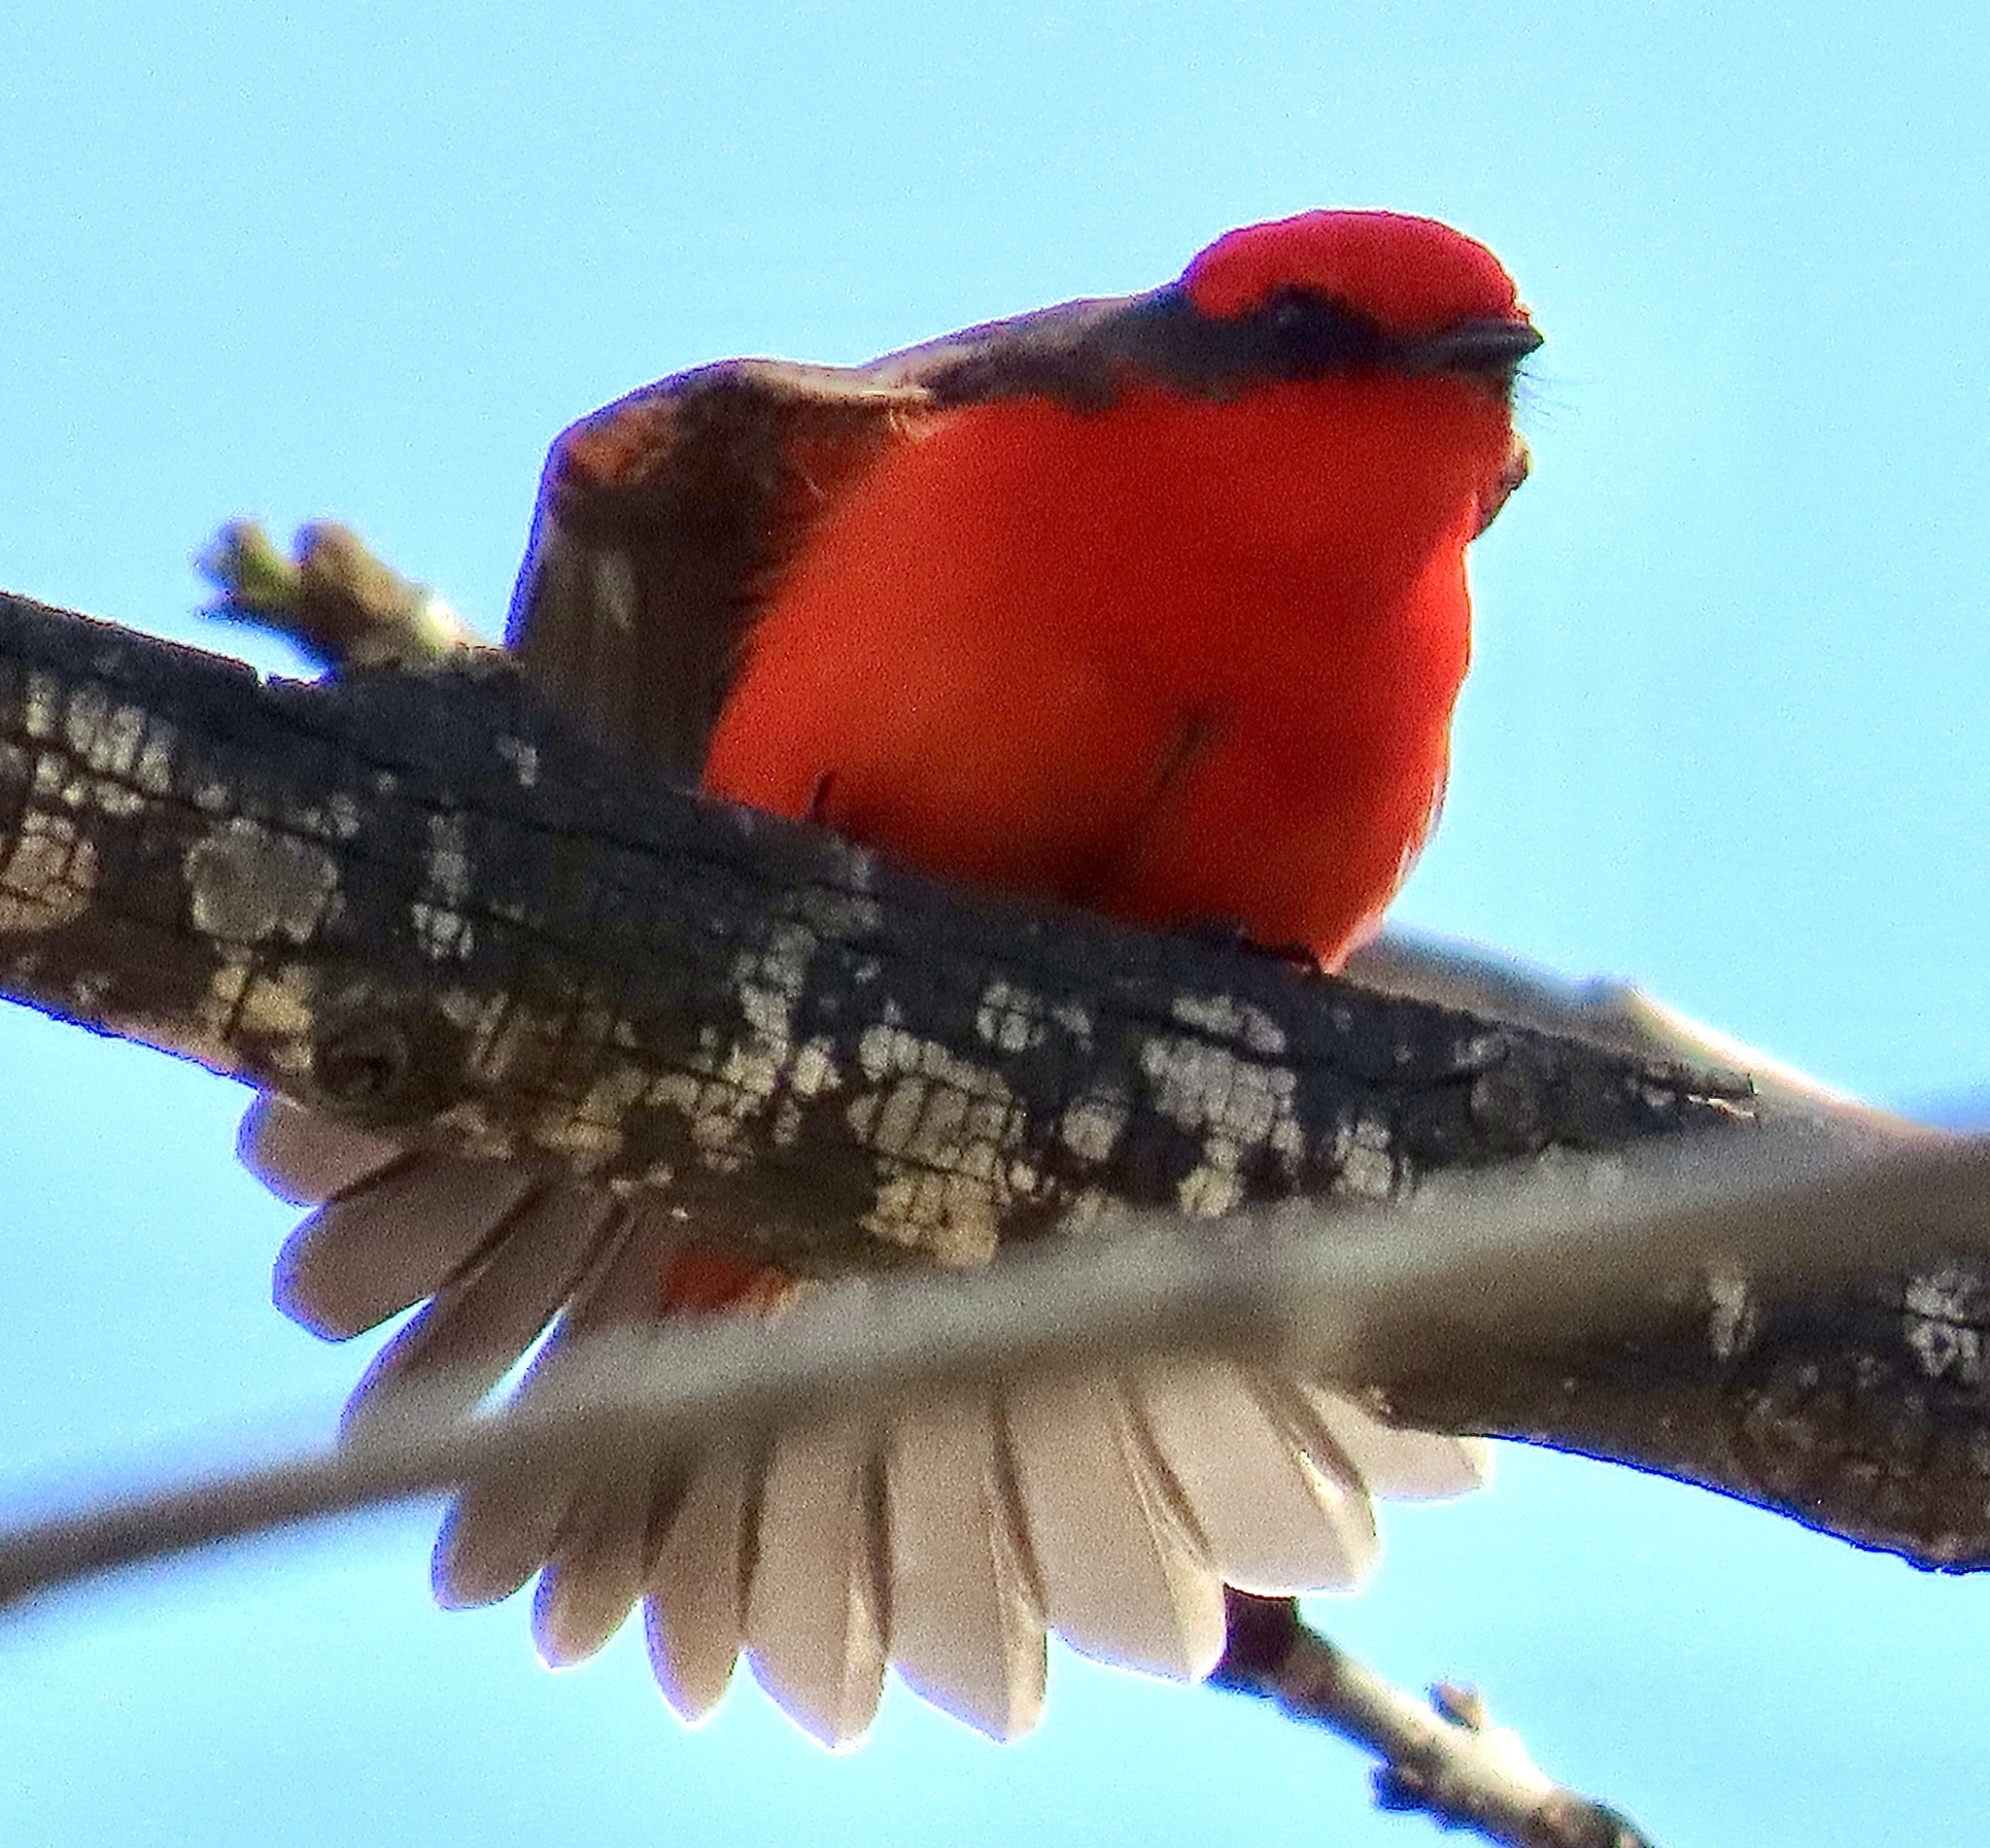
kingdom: Animalia
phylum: Chordata
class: Aves
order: Passeriformes
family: Tyrannidae
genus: Pyrocephalus
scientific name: Pyrocephalus rubinus
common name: Vermilion flycatcher
